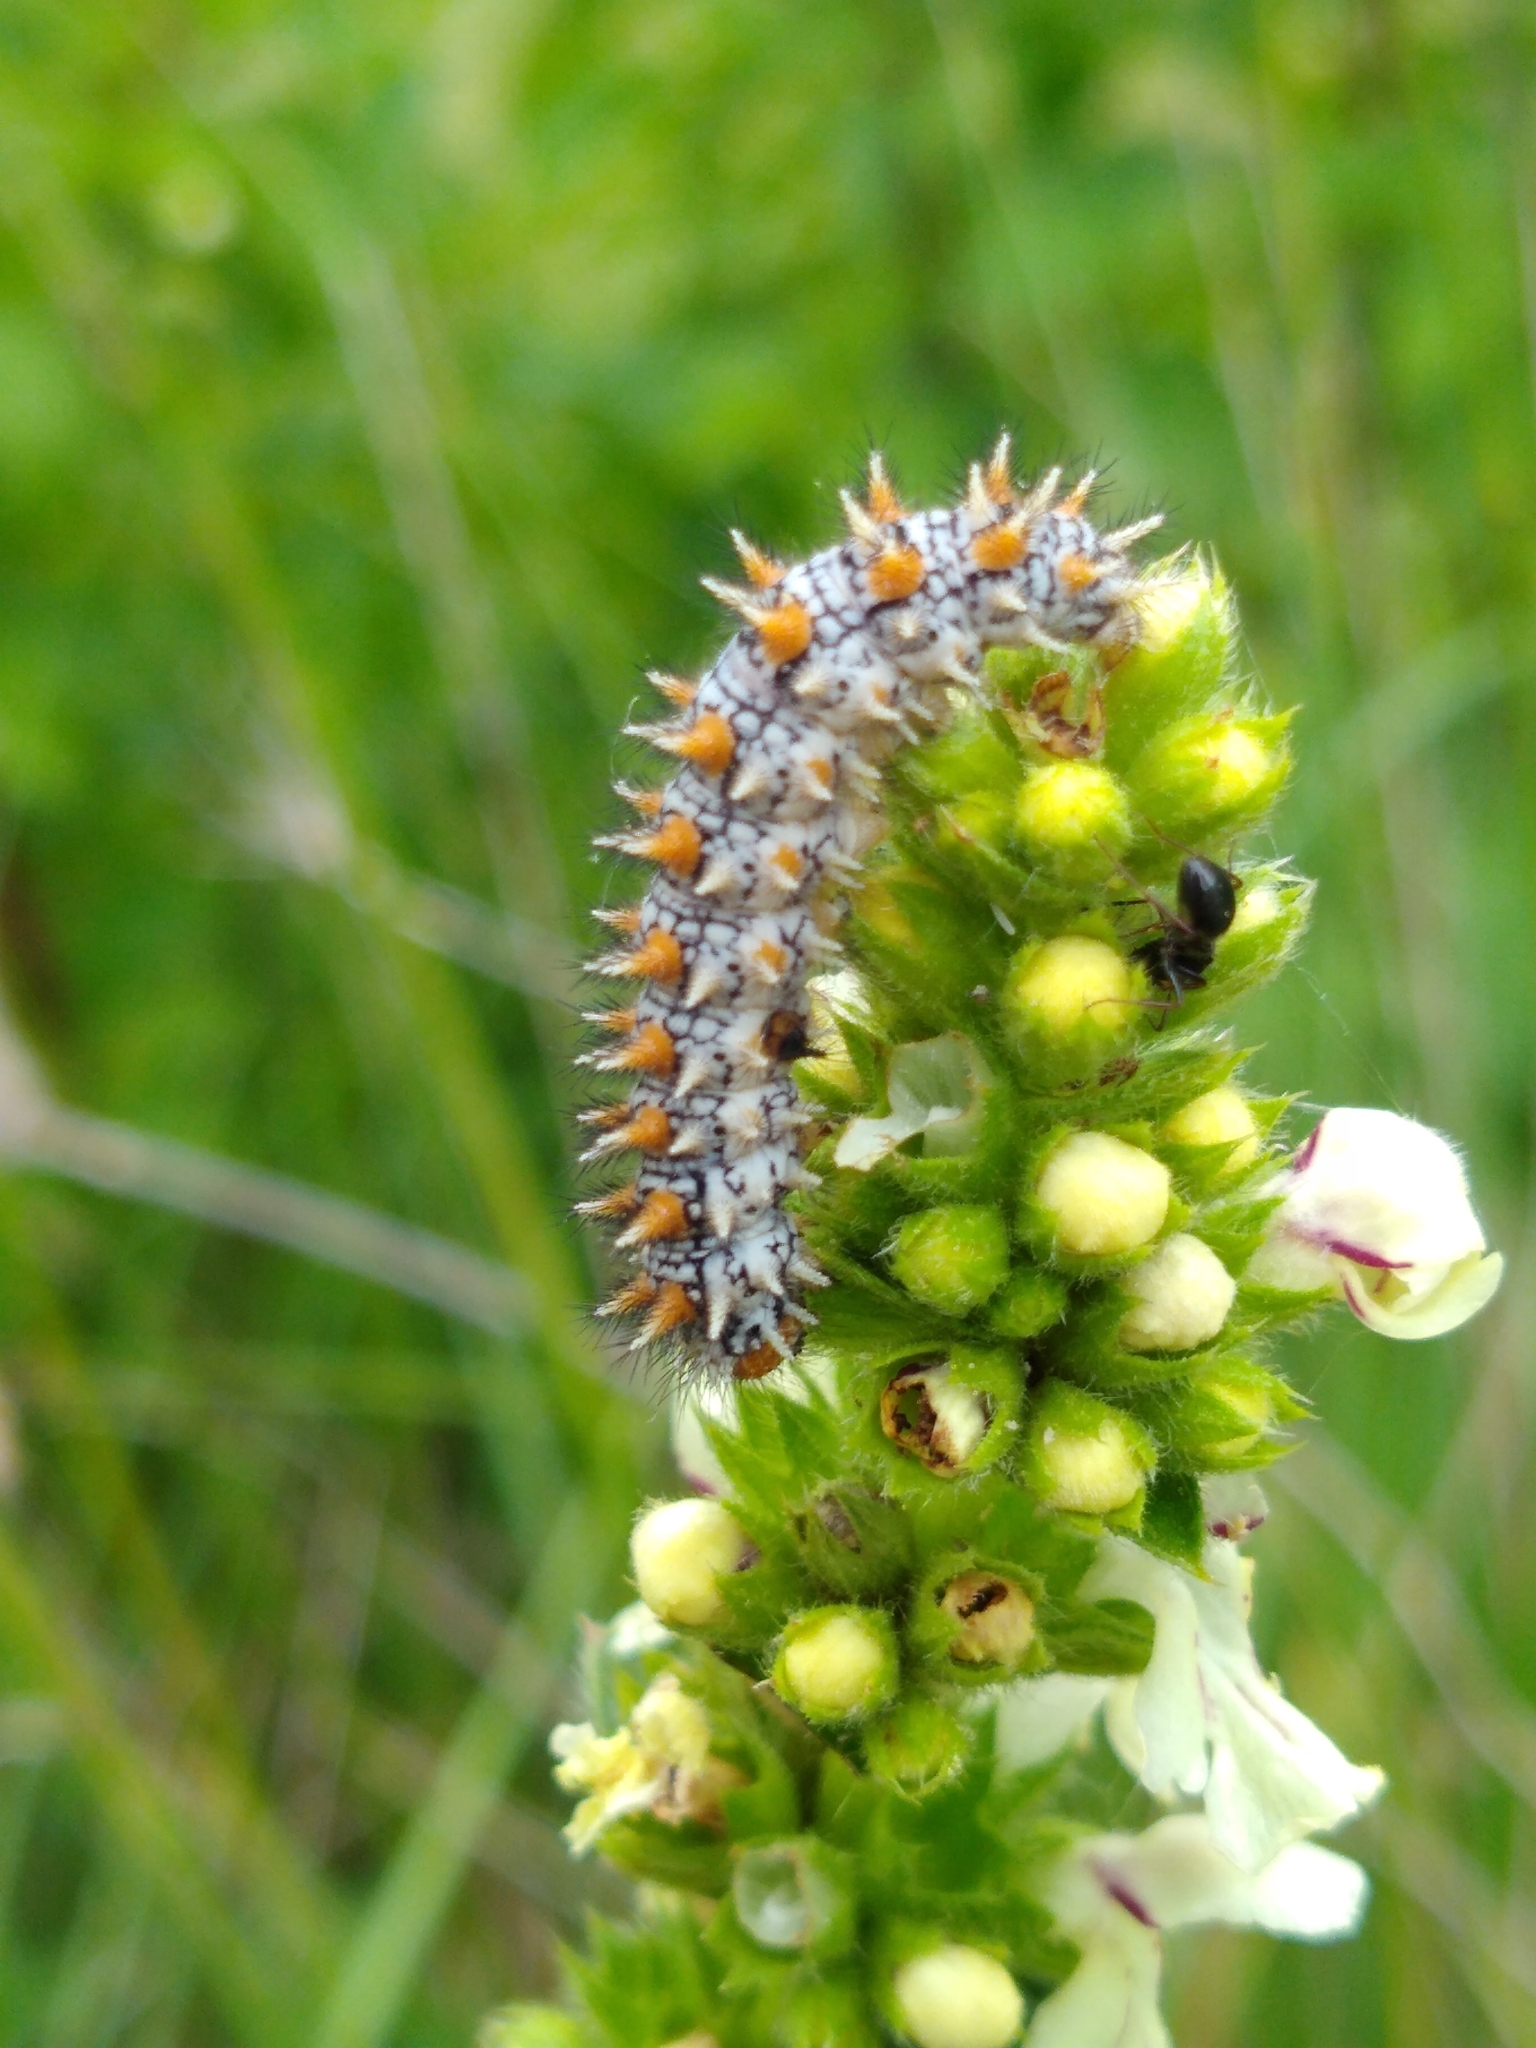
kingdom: Animalia
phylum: Arthropoda
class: Insecta
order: Lepidoptera
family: Nymphalidae
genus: Melitaea
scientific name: Melitaea didyma
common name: Spotted fritillary
